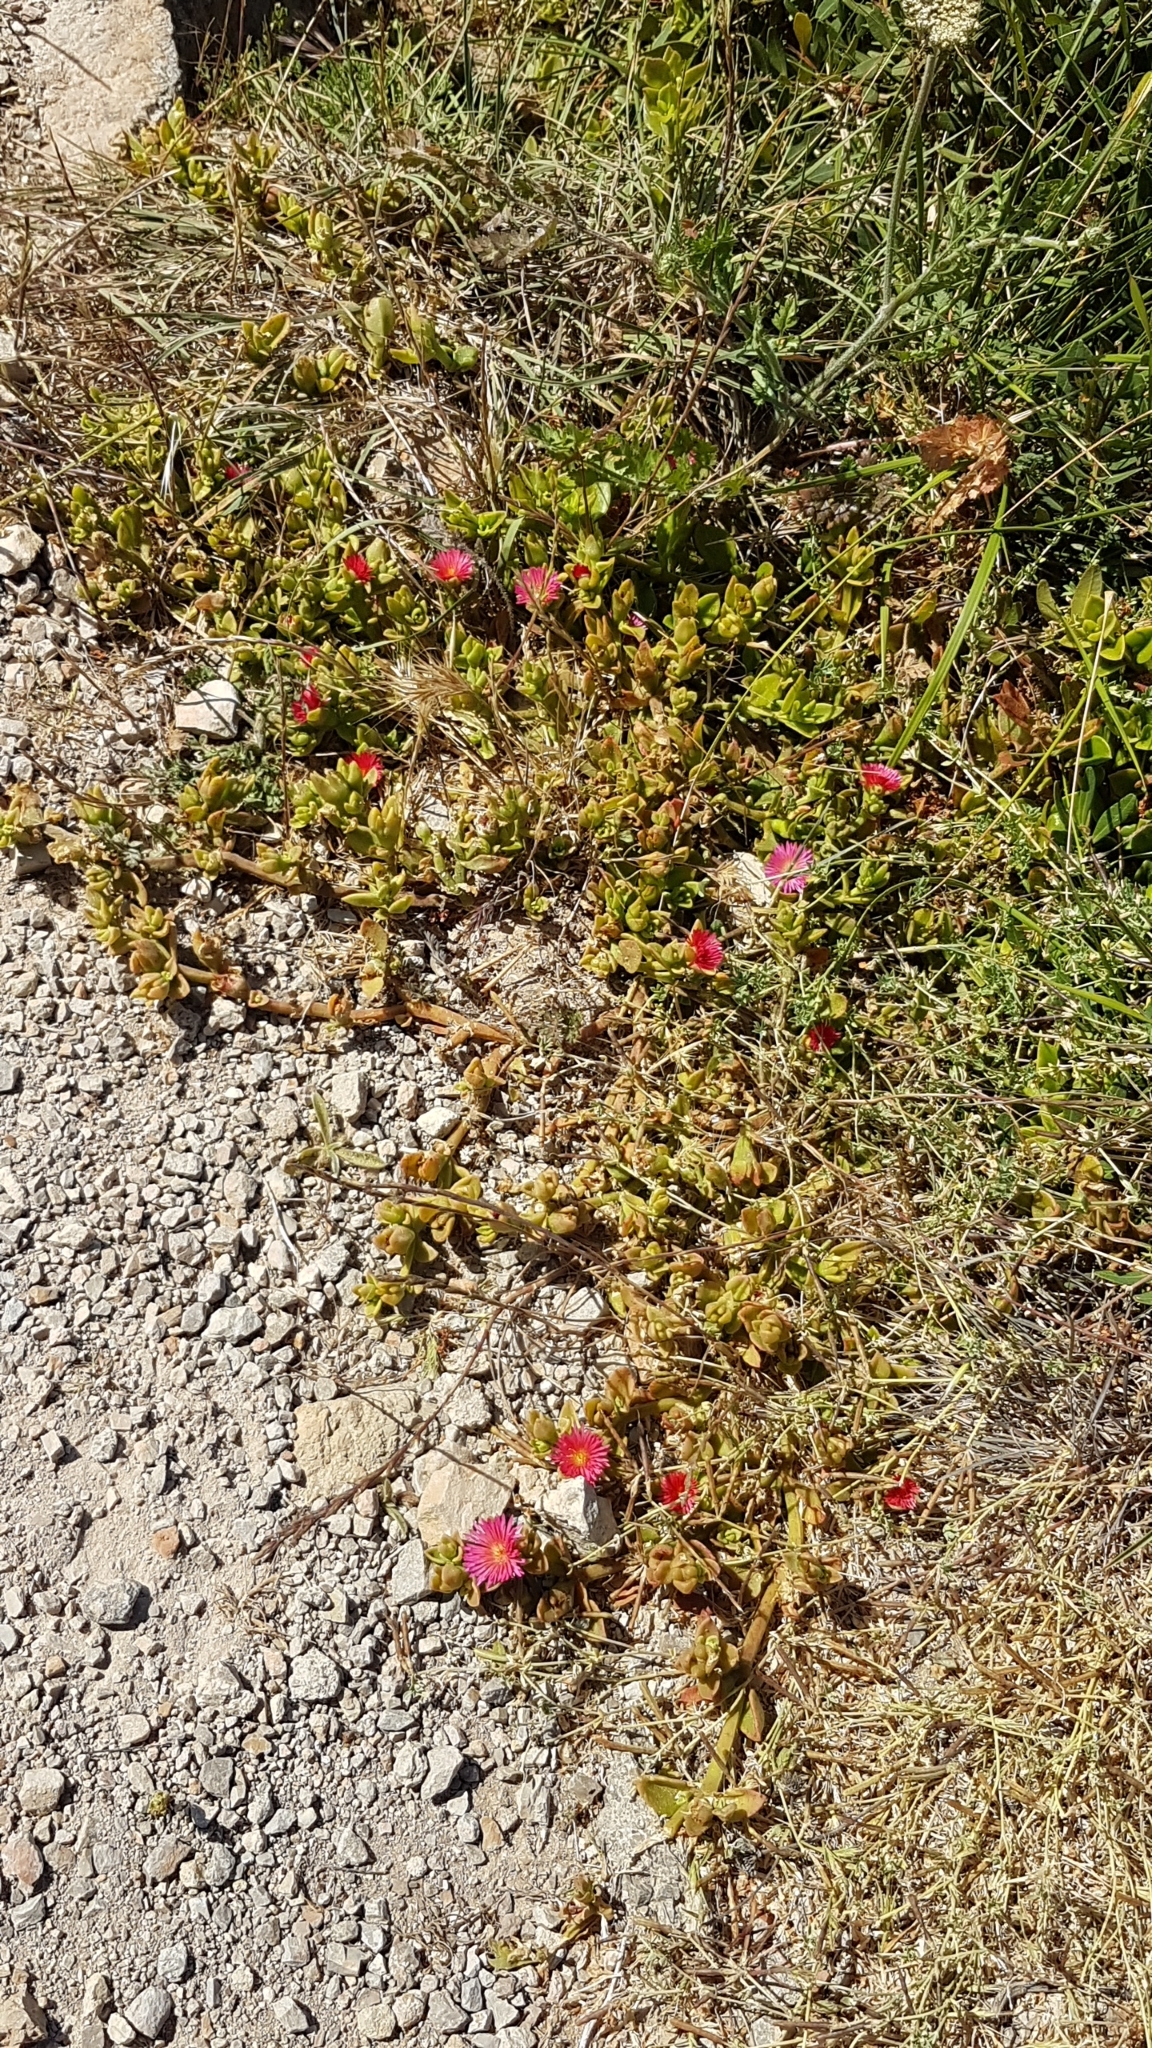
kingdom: Plantae
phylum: Tracheophyta
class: Magnoliopsida
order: Caryophyllales
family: Aizoaceae
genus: Mesembryanthemum
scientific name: Mesembryanthemum cordifolium
